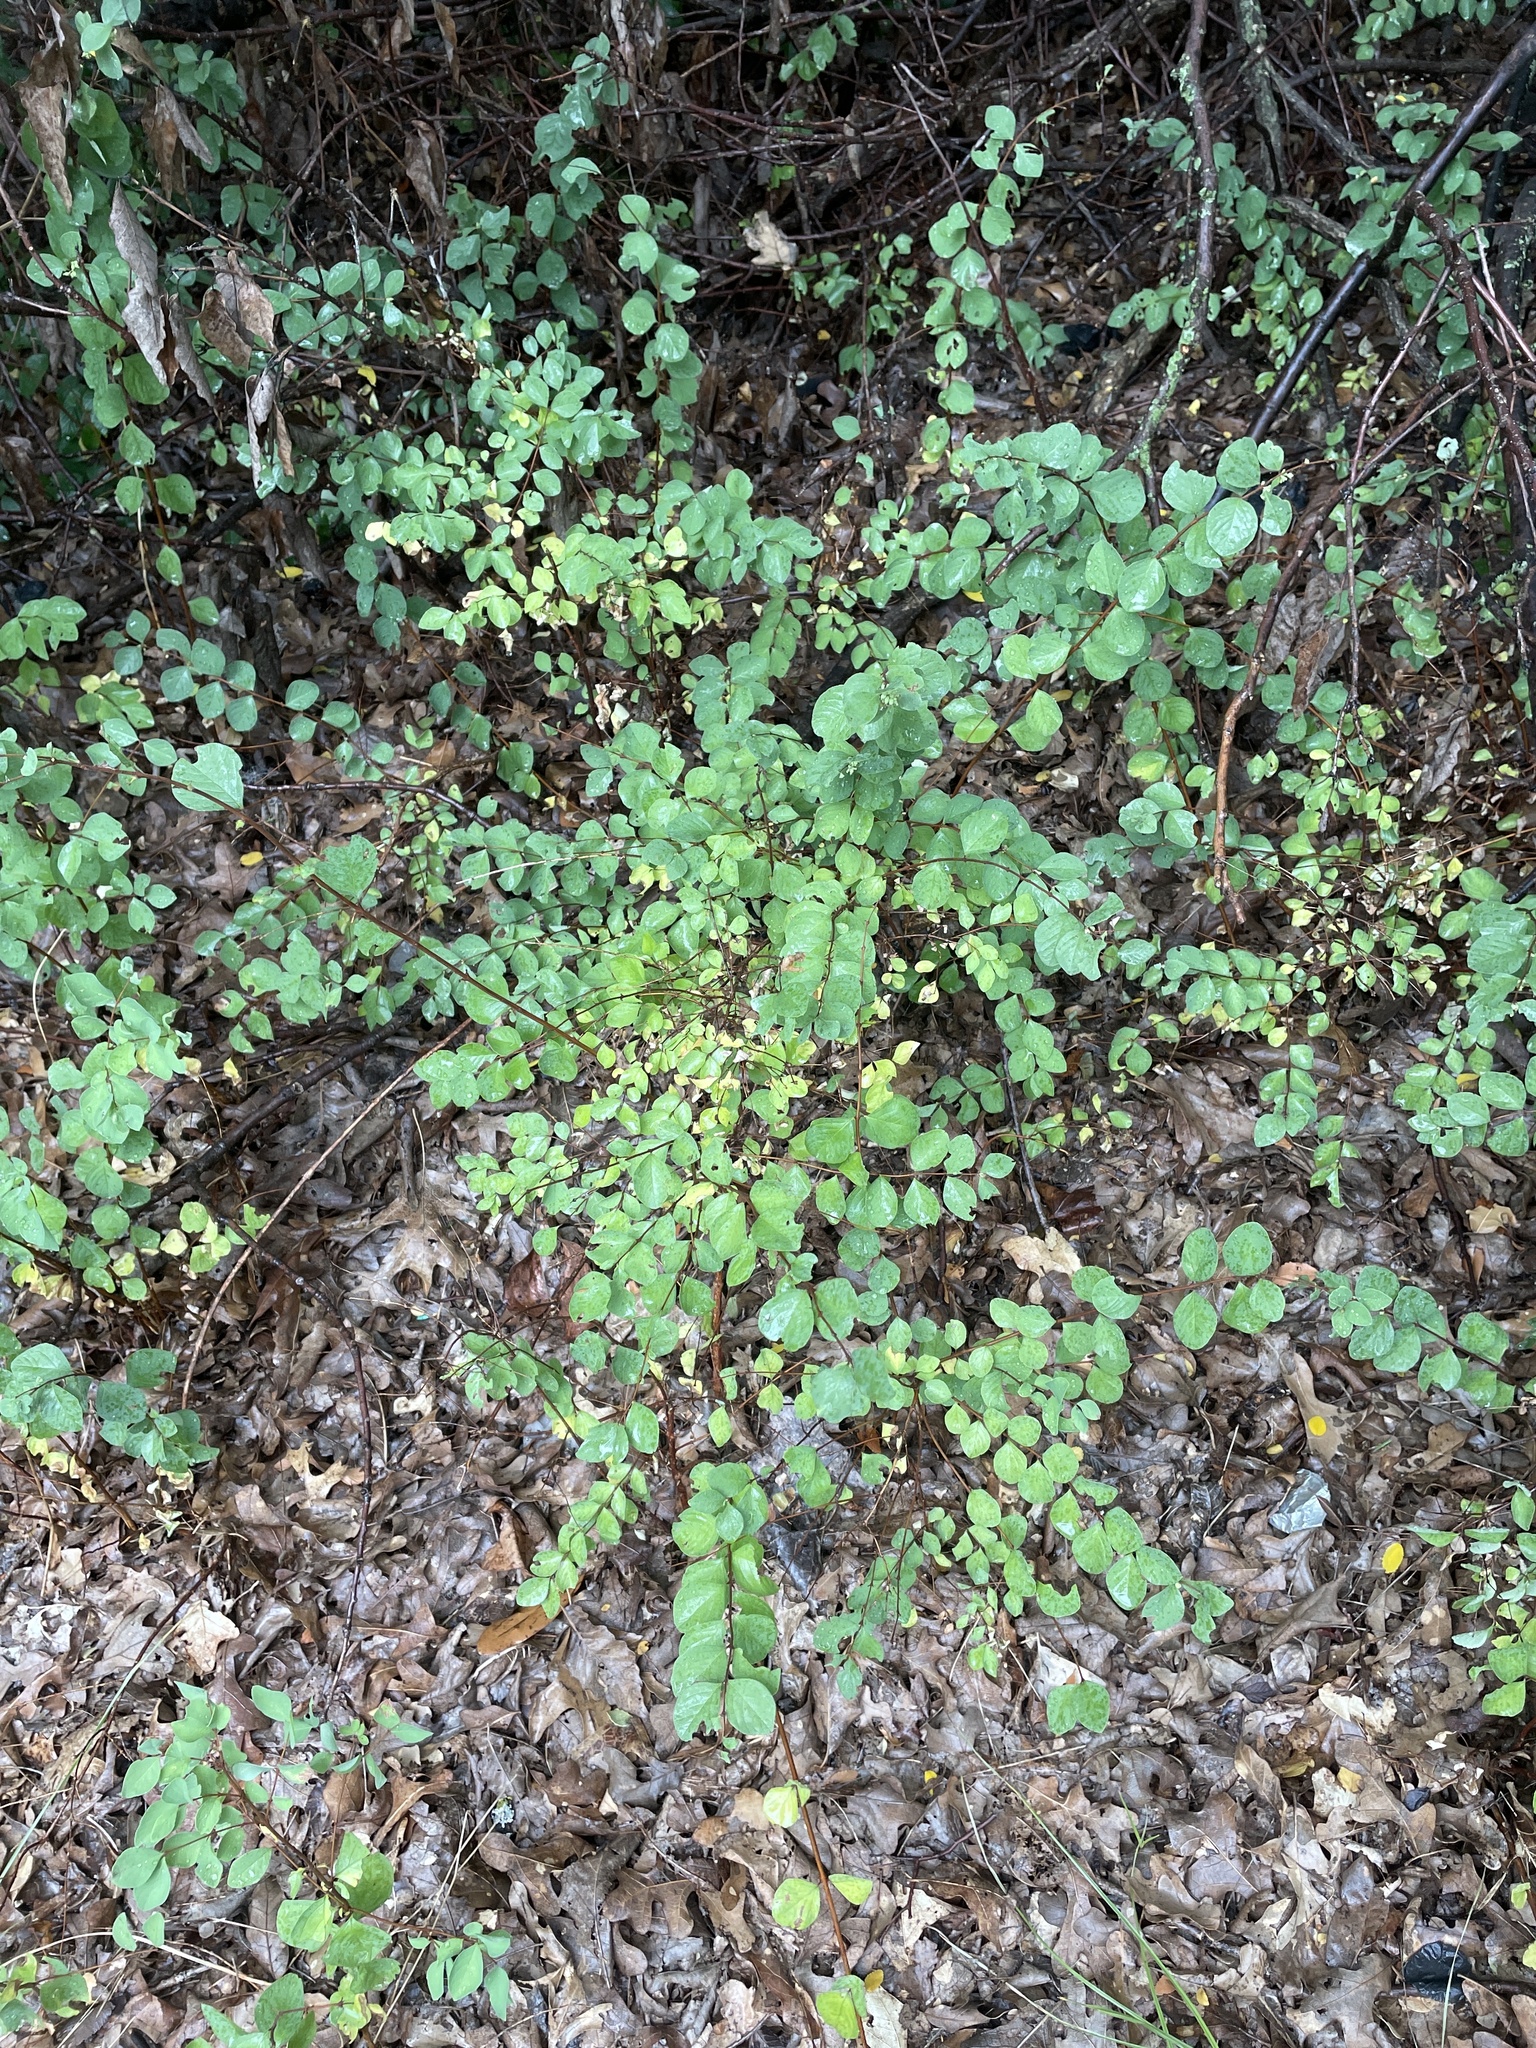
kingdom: Plantae
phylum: Tracheophyta
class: Magnoliopsida
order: Dipsacales
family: Caprifoliaceae
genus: Symphoricarpos
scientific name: Symphoricarpos orbiculatus
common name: Coralberry
